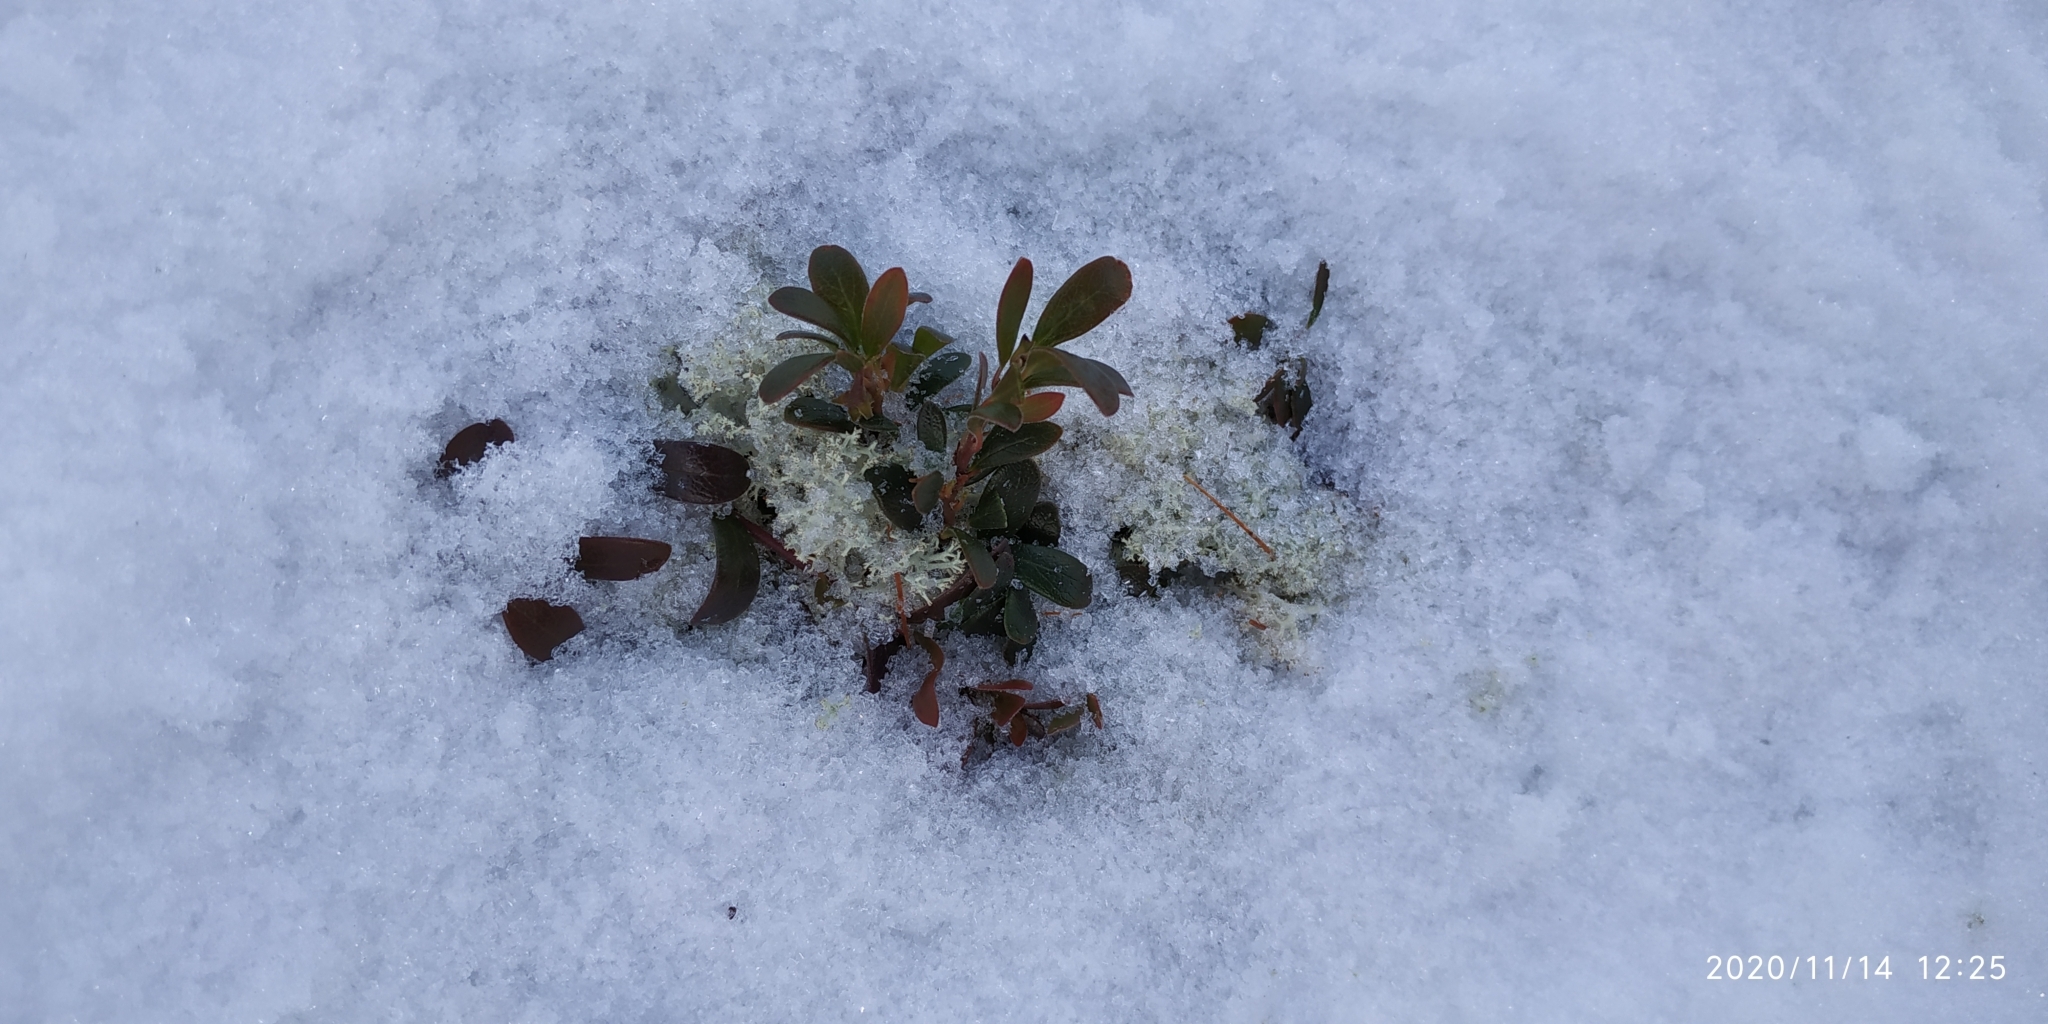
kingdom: Plantae
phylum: Tracheophyta
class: Magnoliopsida
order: Ericales
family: Ericaceae
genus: Arctostaphylos
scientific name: Arctostaphylos uva-ursi
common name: Bearberry
